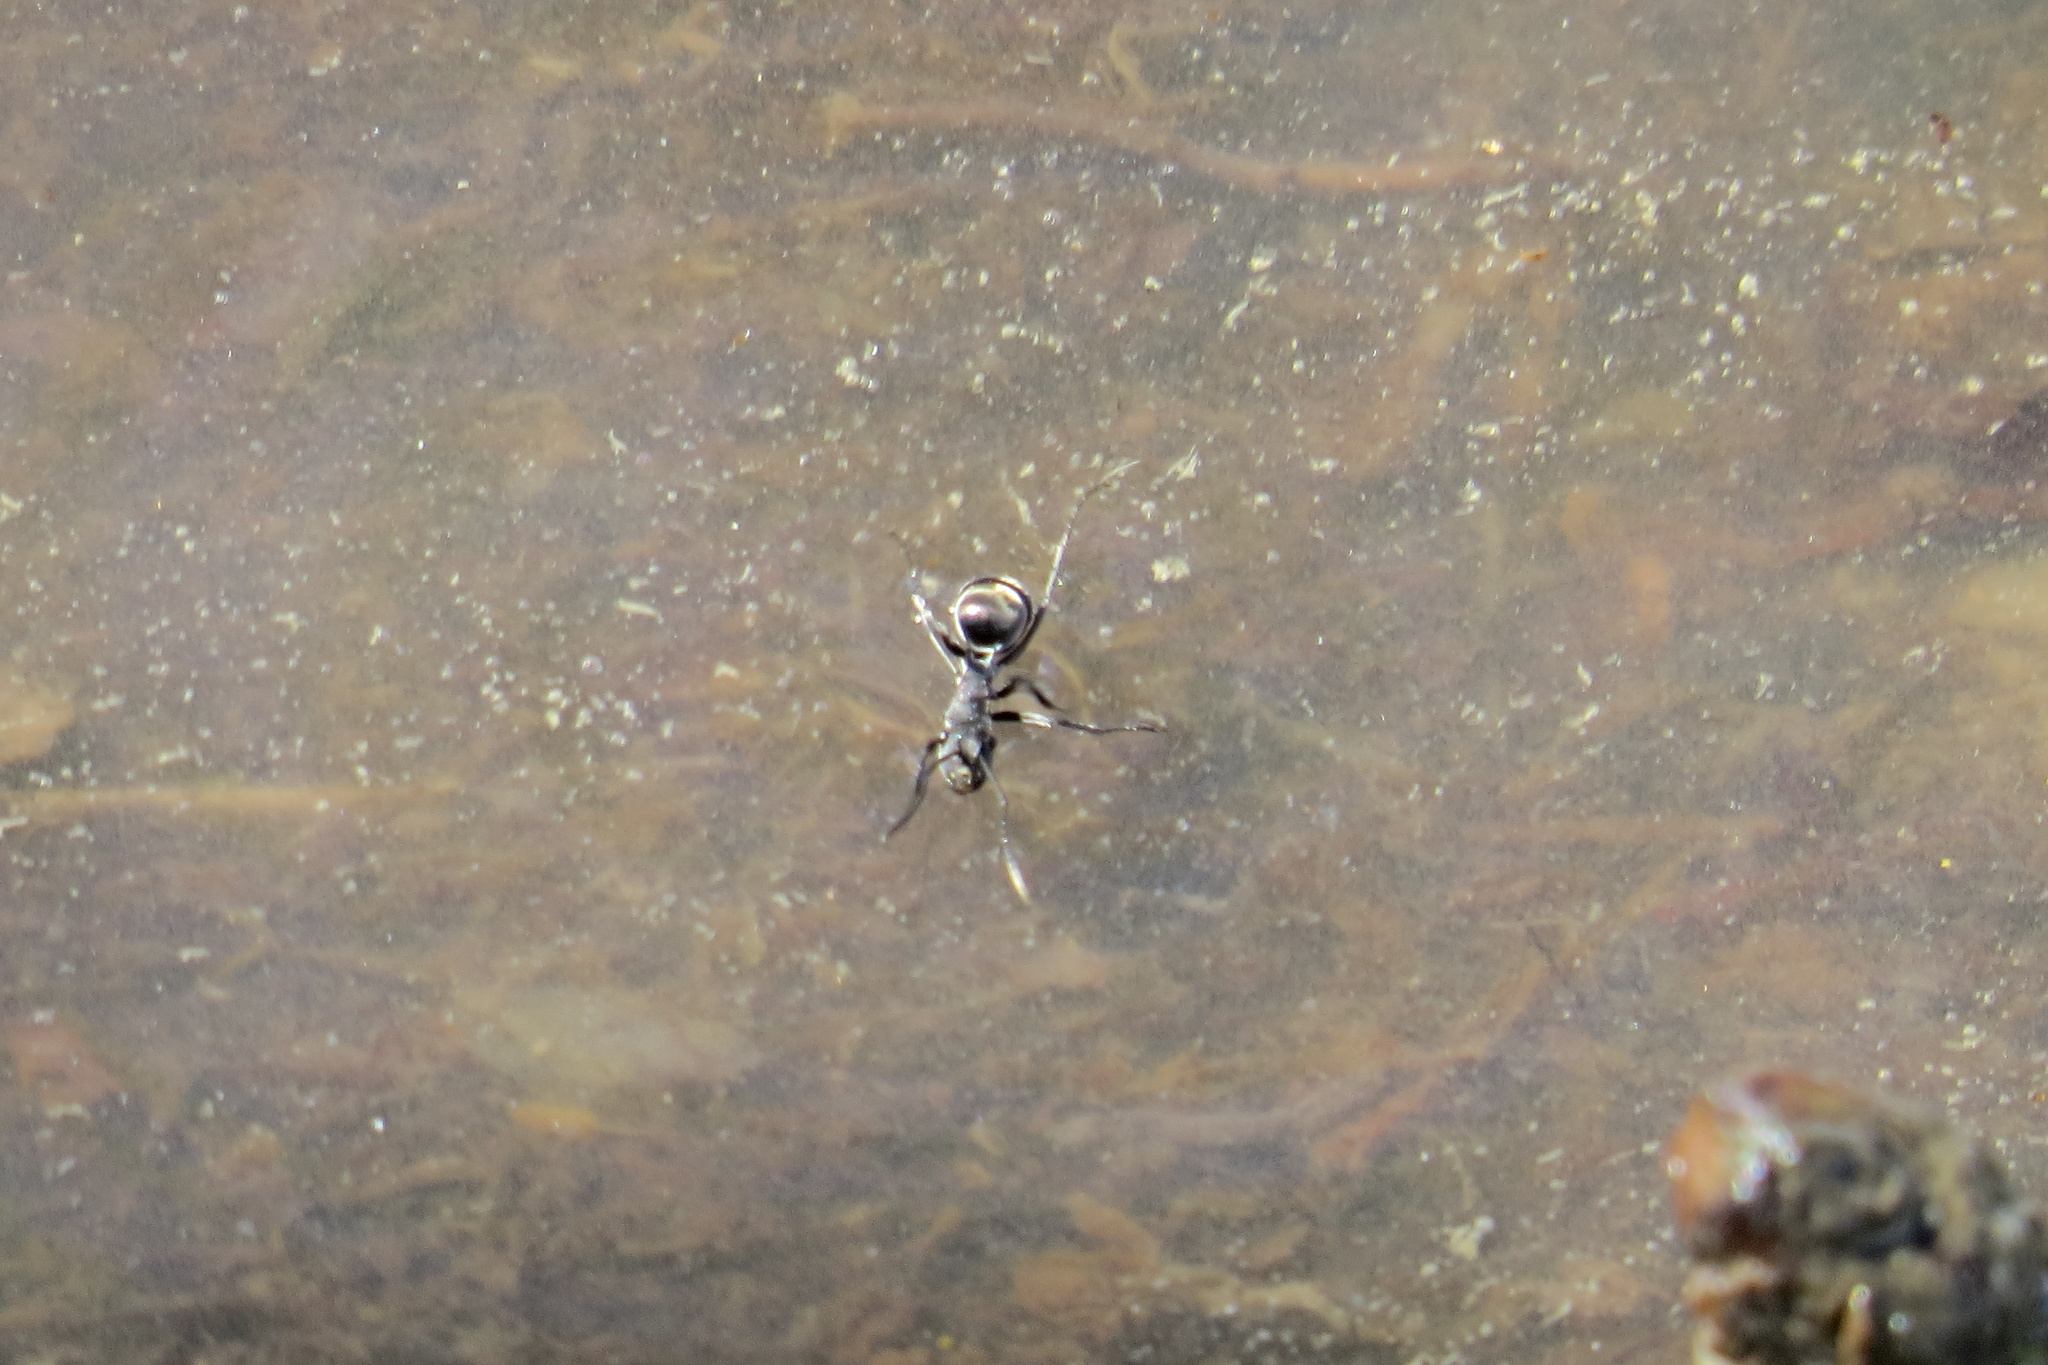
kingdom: Animalia
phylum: Arthropoda
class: Insecta
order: Hymenoptera
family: Formicidae
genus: Polyrhachis
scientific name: Polyrhachis sokolova
